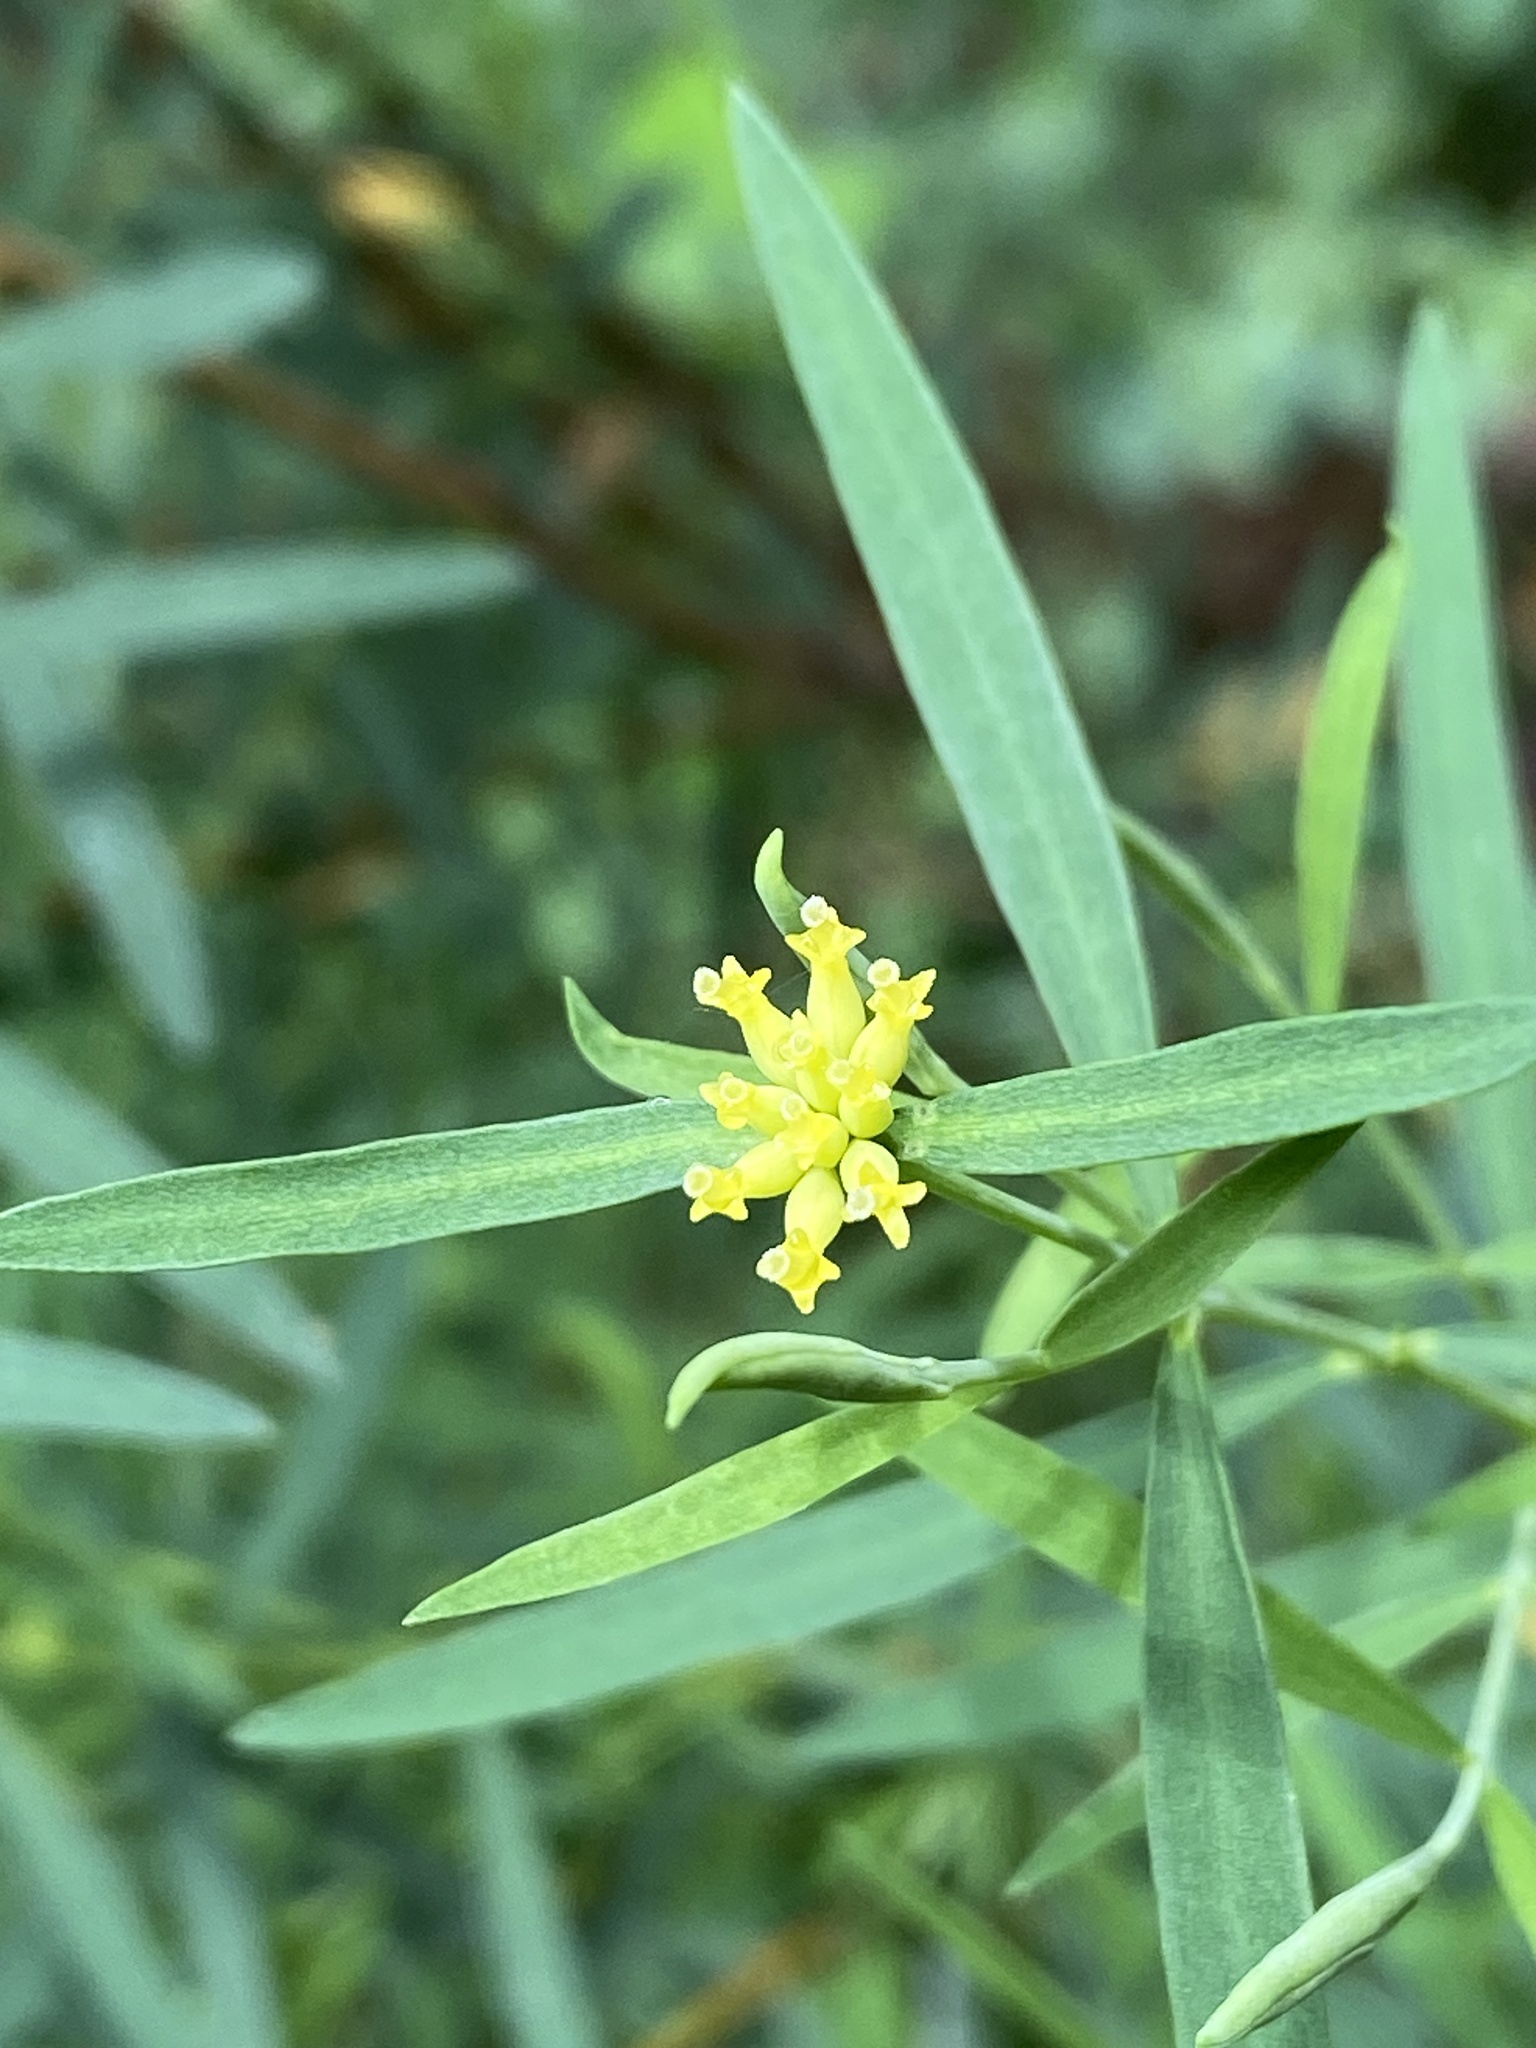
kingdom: Plantae
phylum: Tracheophyta
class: Magnoliopsida
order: Malvales
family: Thymelaeaceae
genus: Pimelea
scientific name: Pimelea neoanglica
